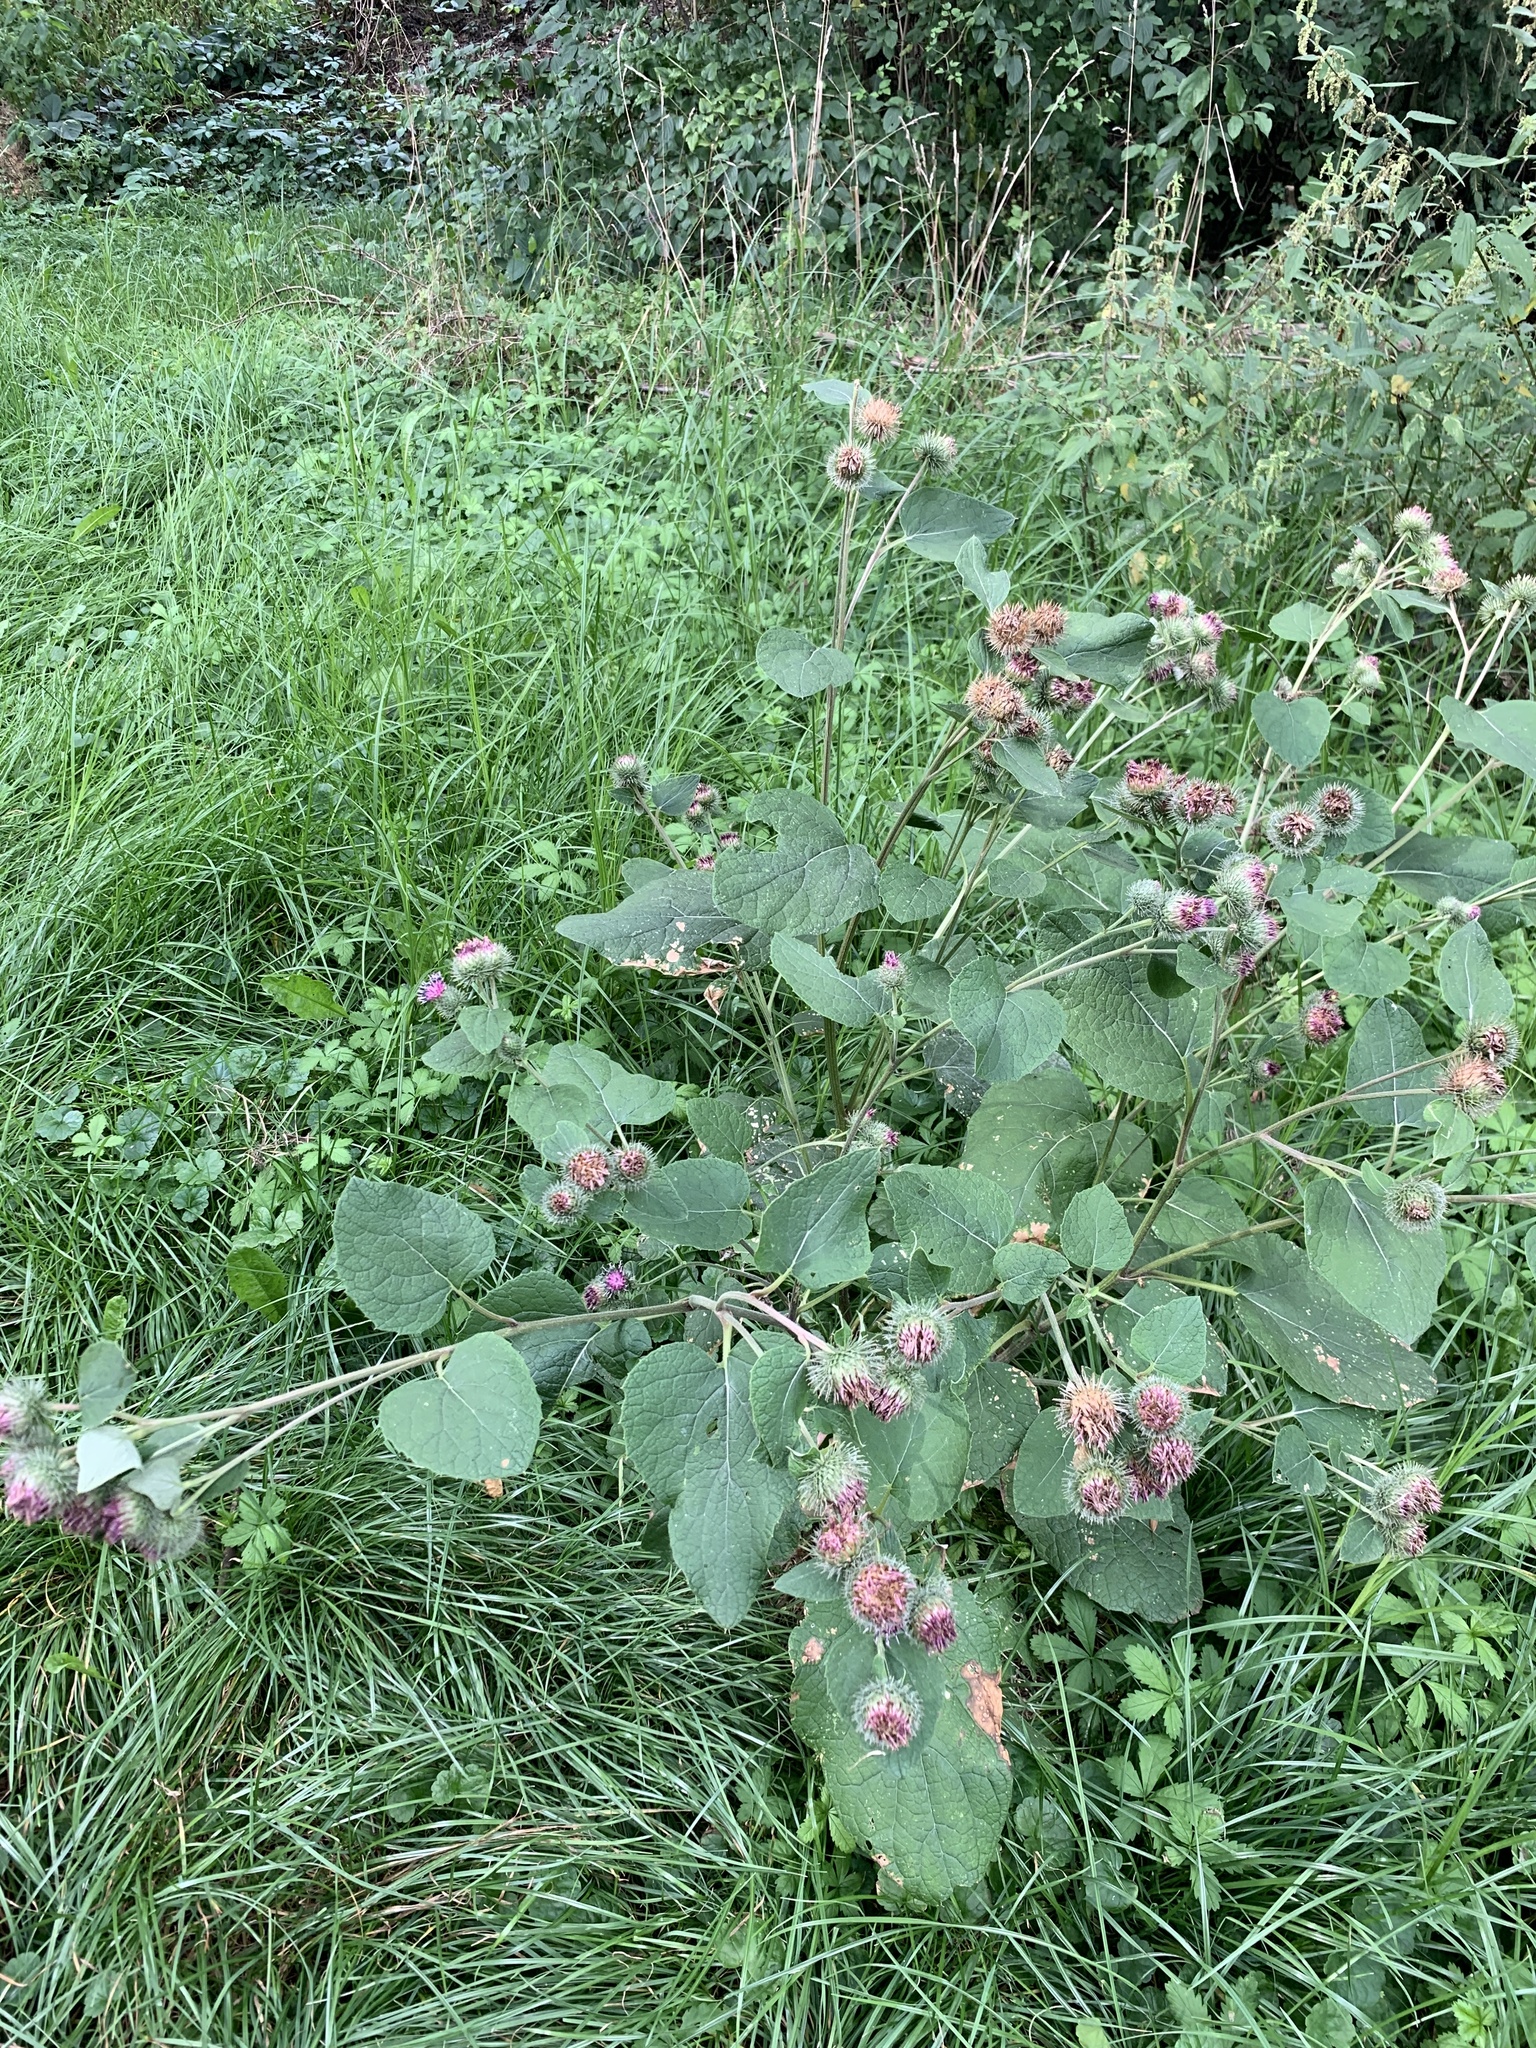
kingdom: Plantae
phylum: Tracheophyta
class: Magnoliopsida
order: Asterales
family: Asteraceae
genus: Arctium
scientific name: Arctium tomentosum
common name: Woolly burdock
